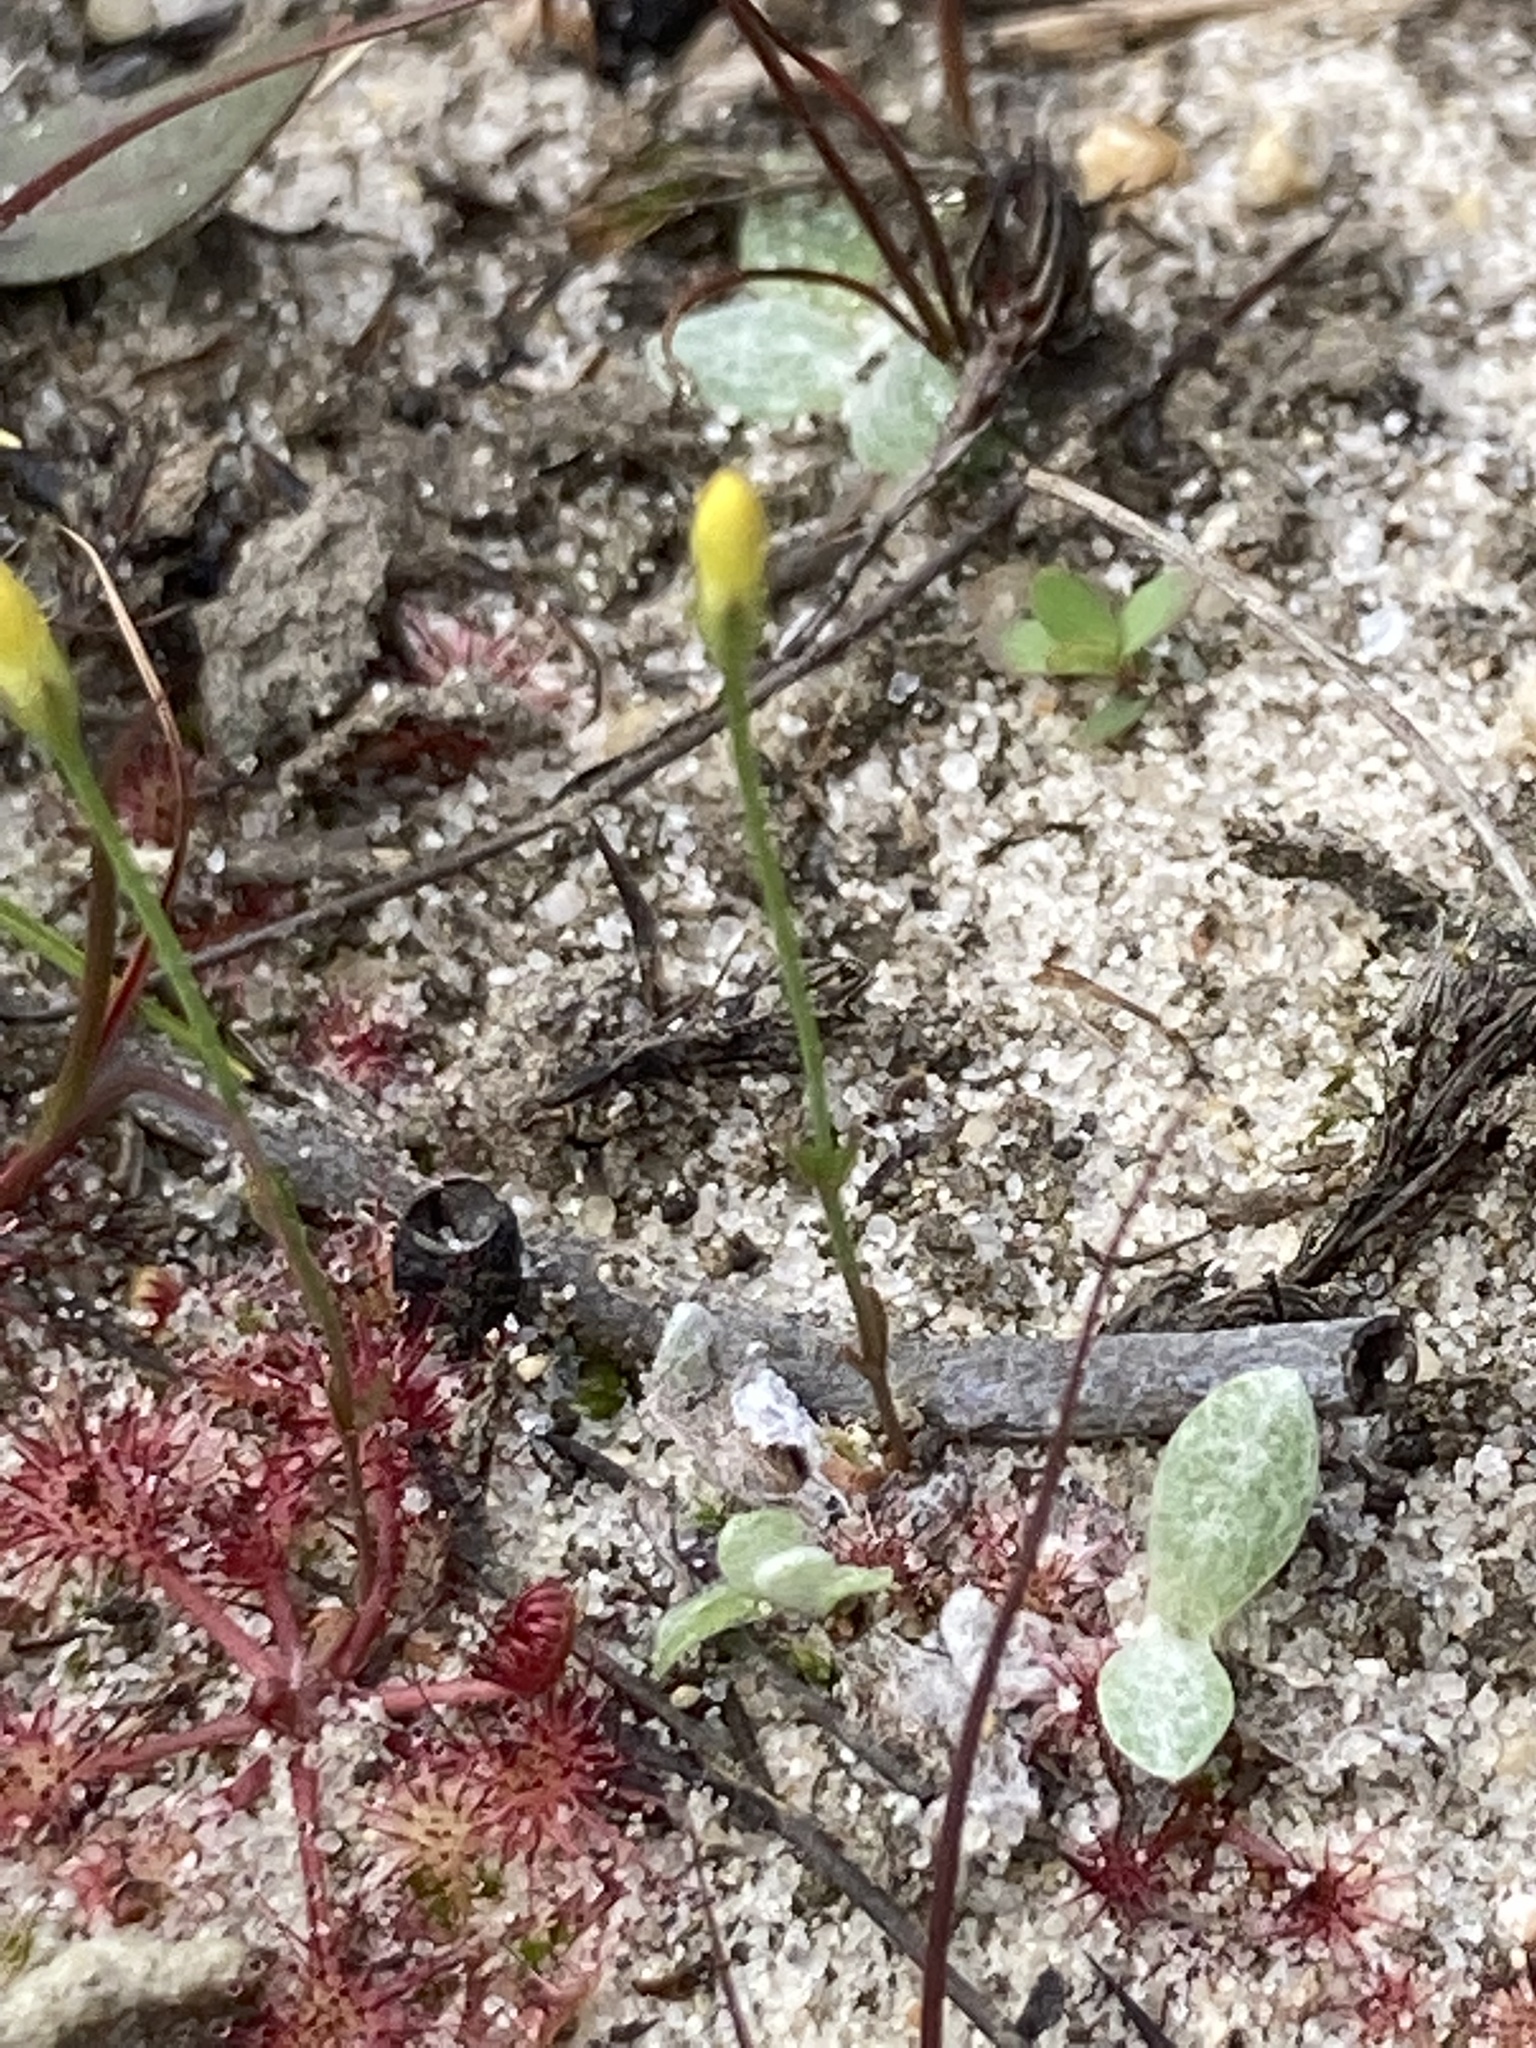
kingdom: Plantae
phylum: Tracheophyta
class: Magnoliopsida
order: Gentianales
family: Gentianaceae
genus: Cicendia
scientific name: Cicendia filiformis
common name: Yellow centaury
